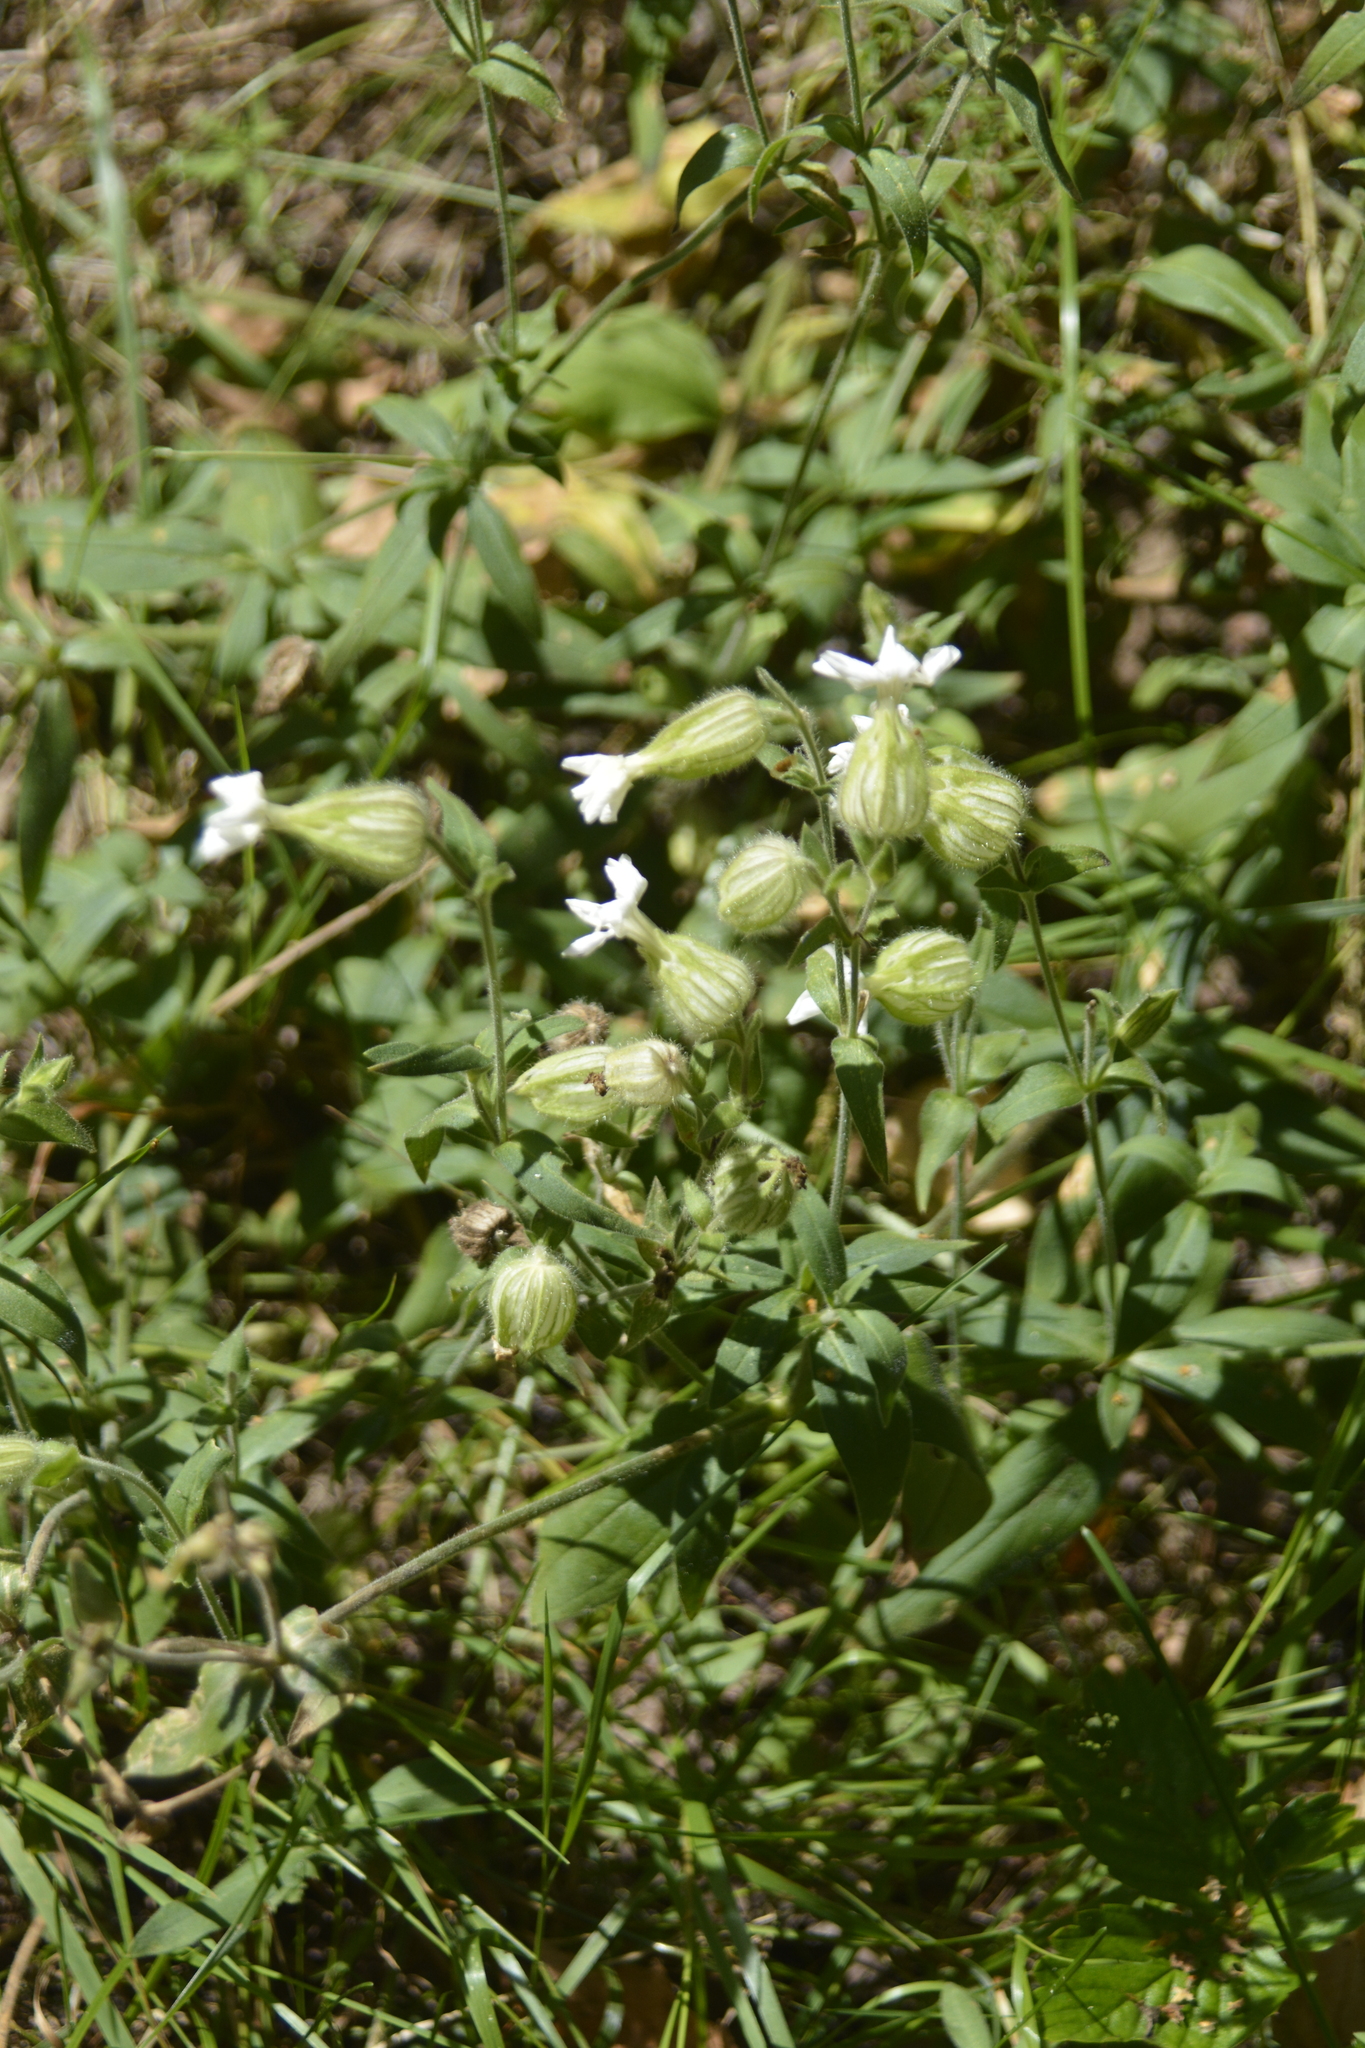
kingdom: Plantae
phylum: Tracheophyta
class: Magnoliopsida
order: Caryophyllales
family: Caryophyllaceae
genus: Silene
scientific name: Silene latifolia
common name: White campion
